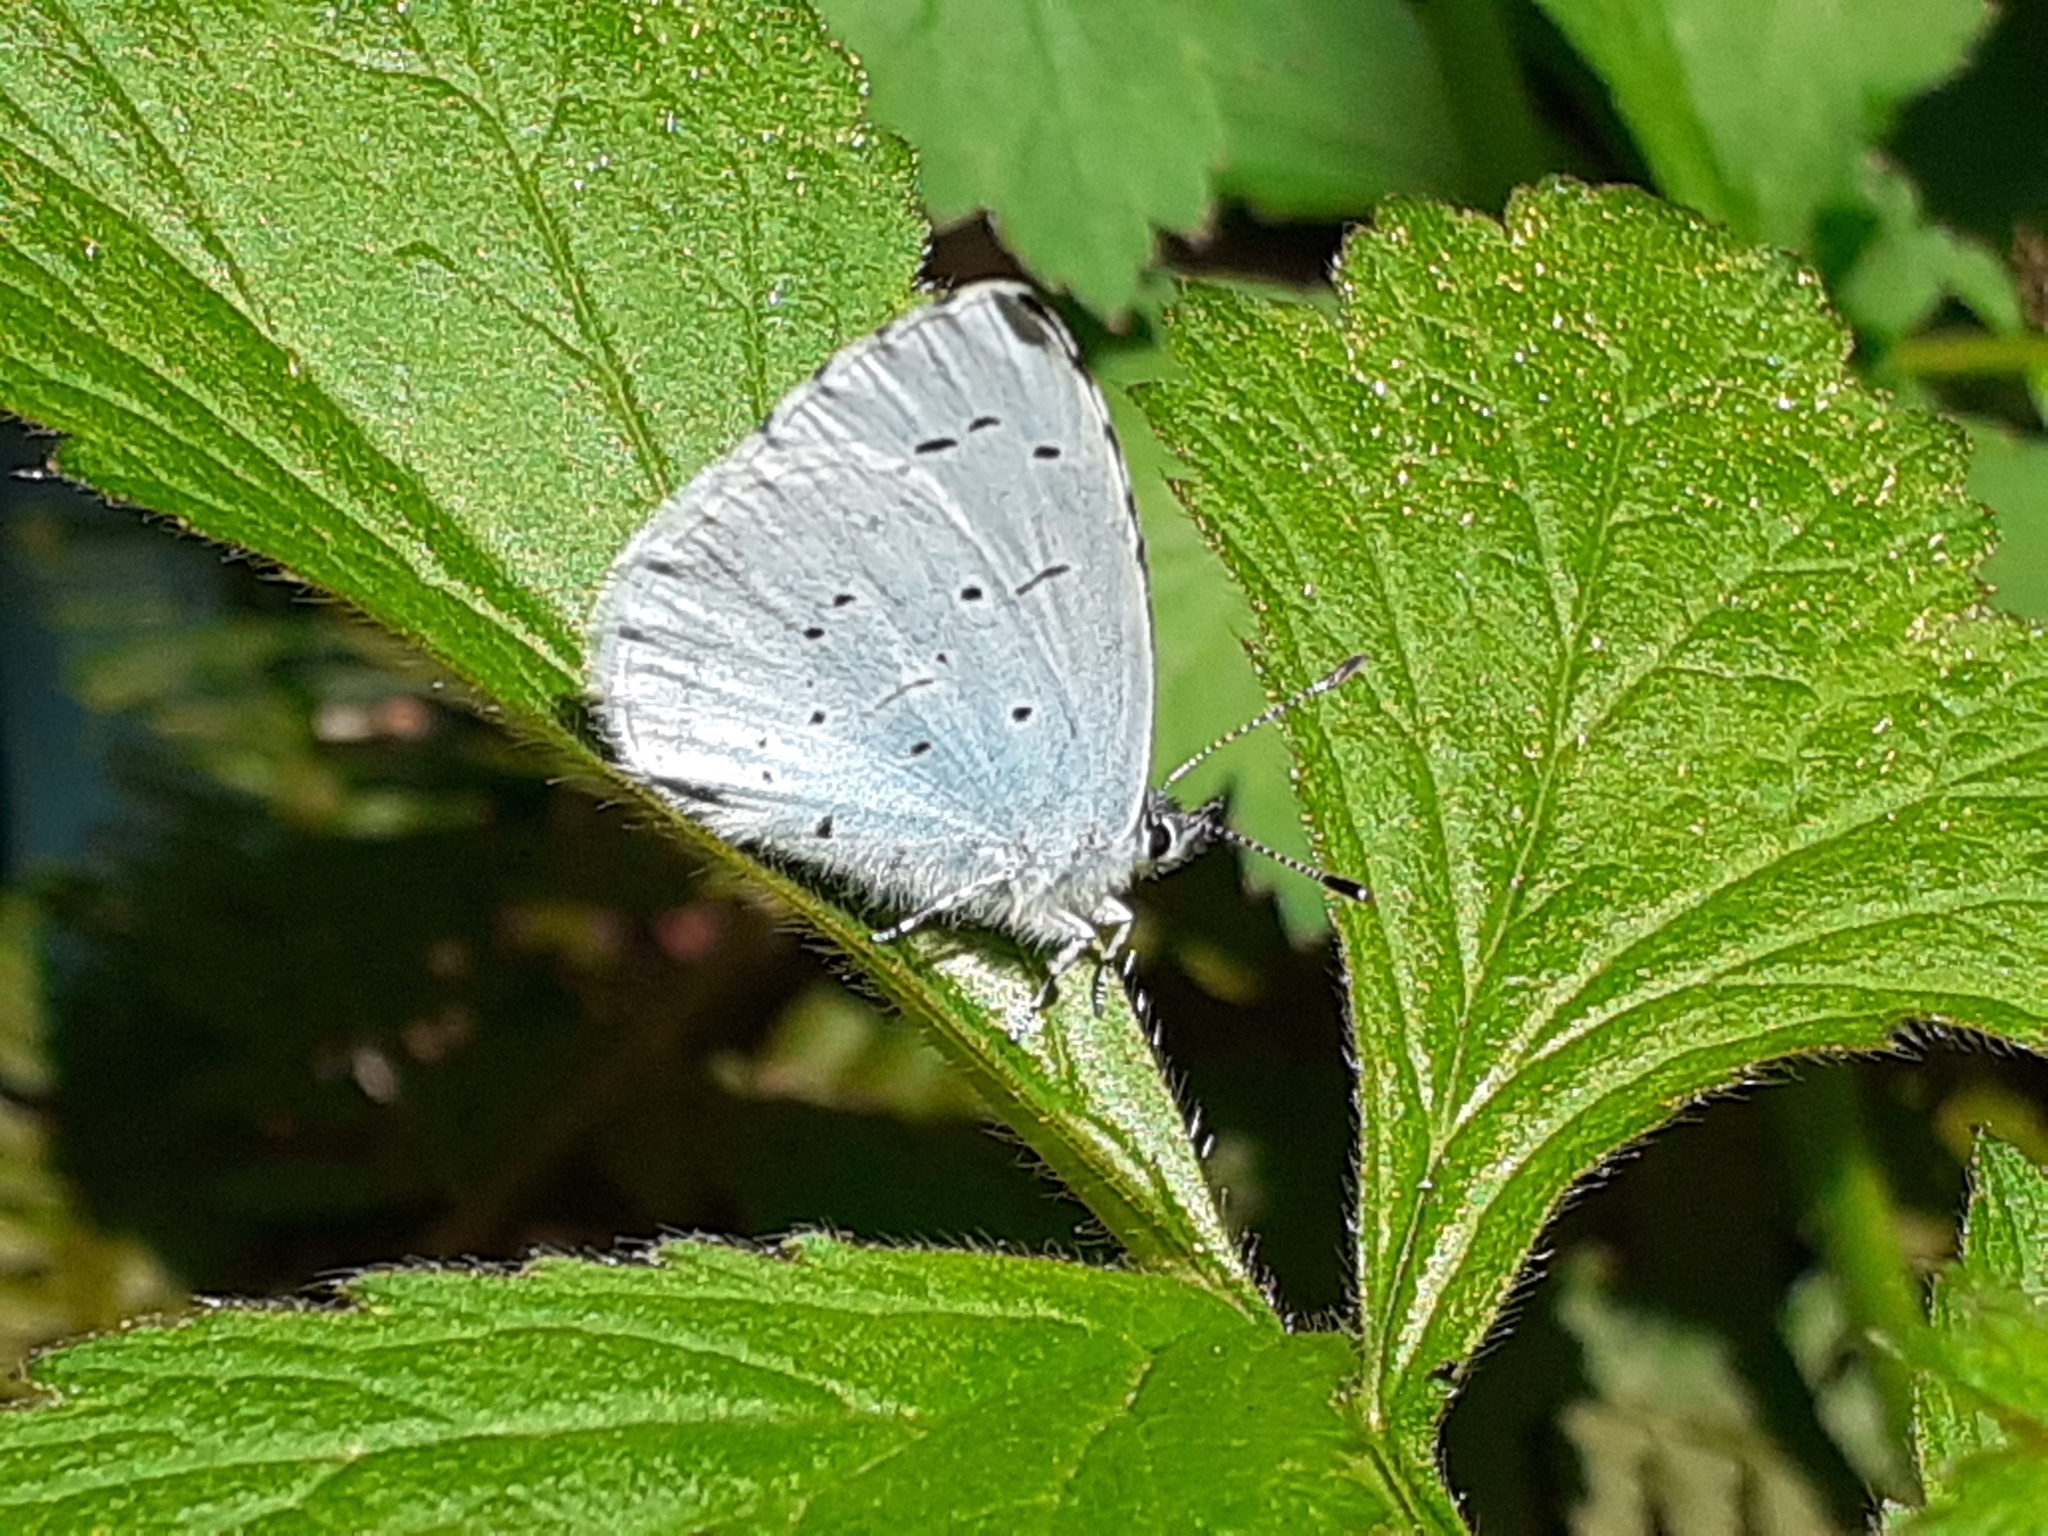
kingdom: Animalia
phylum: Arthropoda
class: Insecta
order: Lepidoptera
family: Lycaenidae
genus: Celastrina
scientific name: Celastrina argiolus
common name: Holly blue
